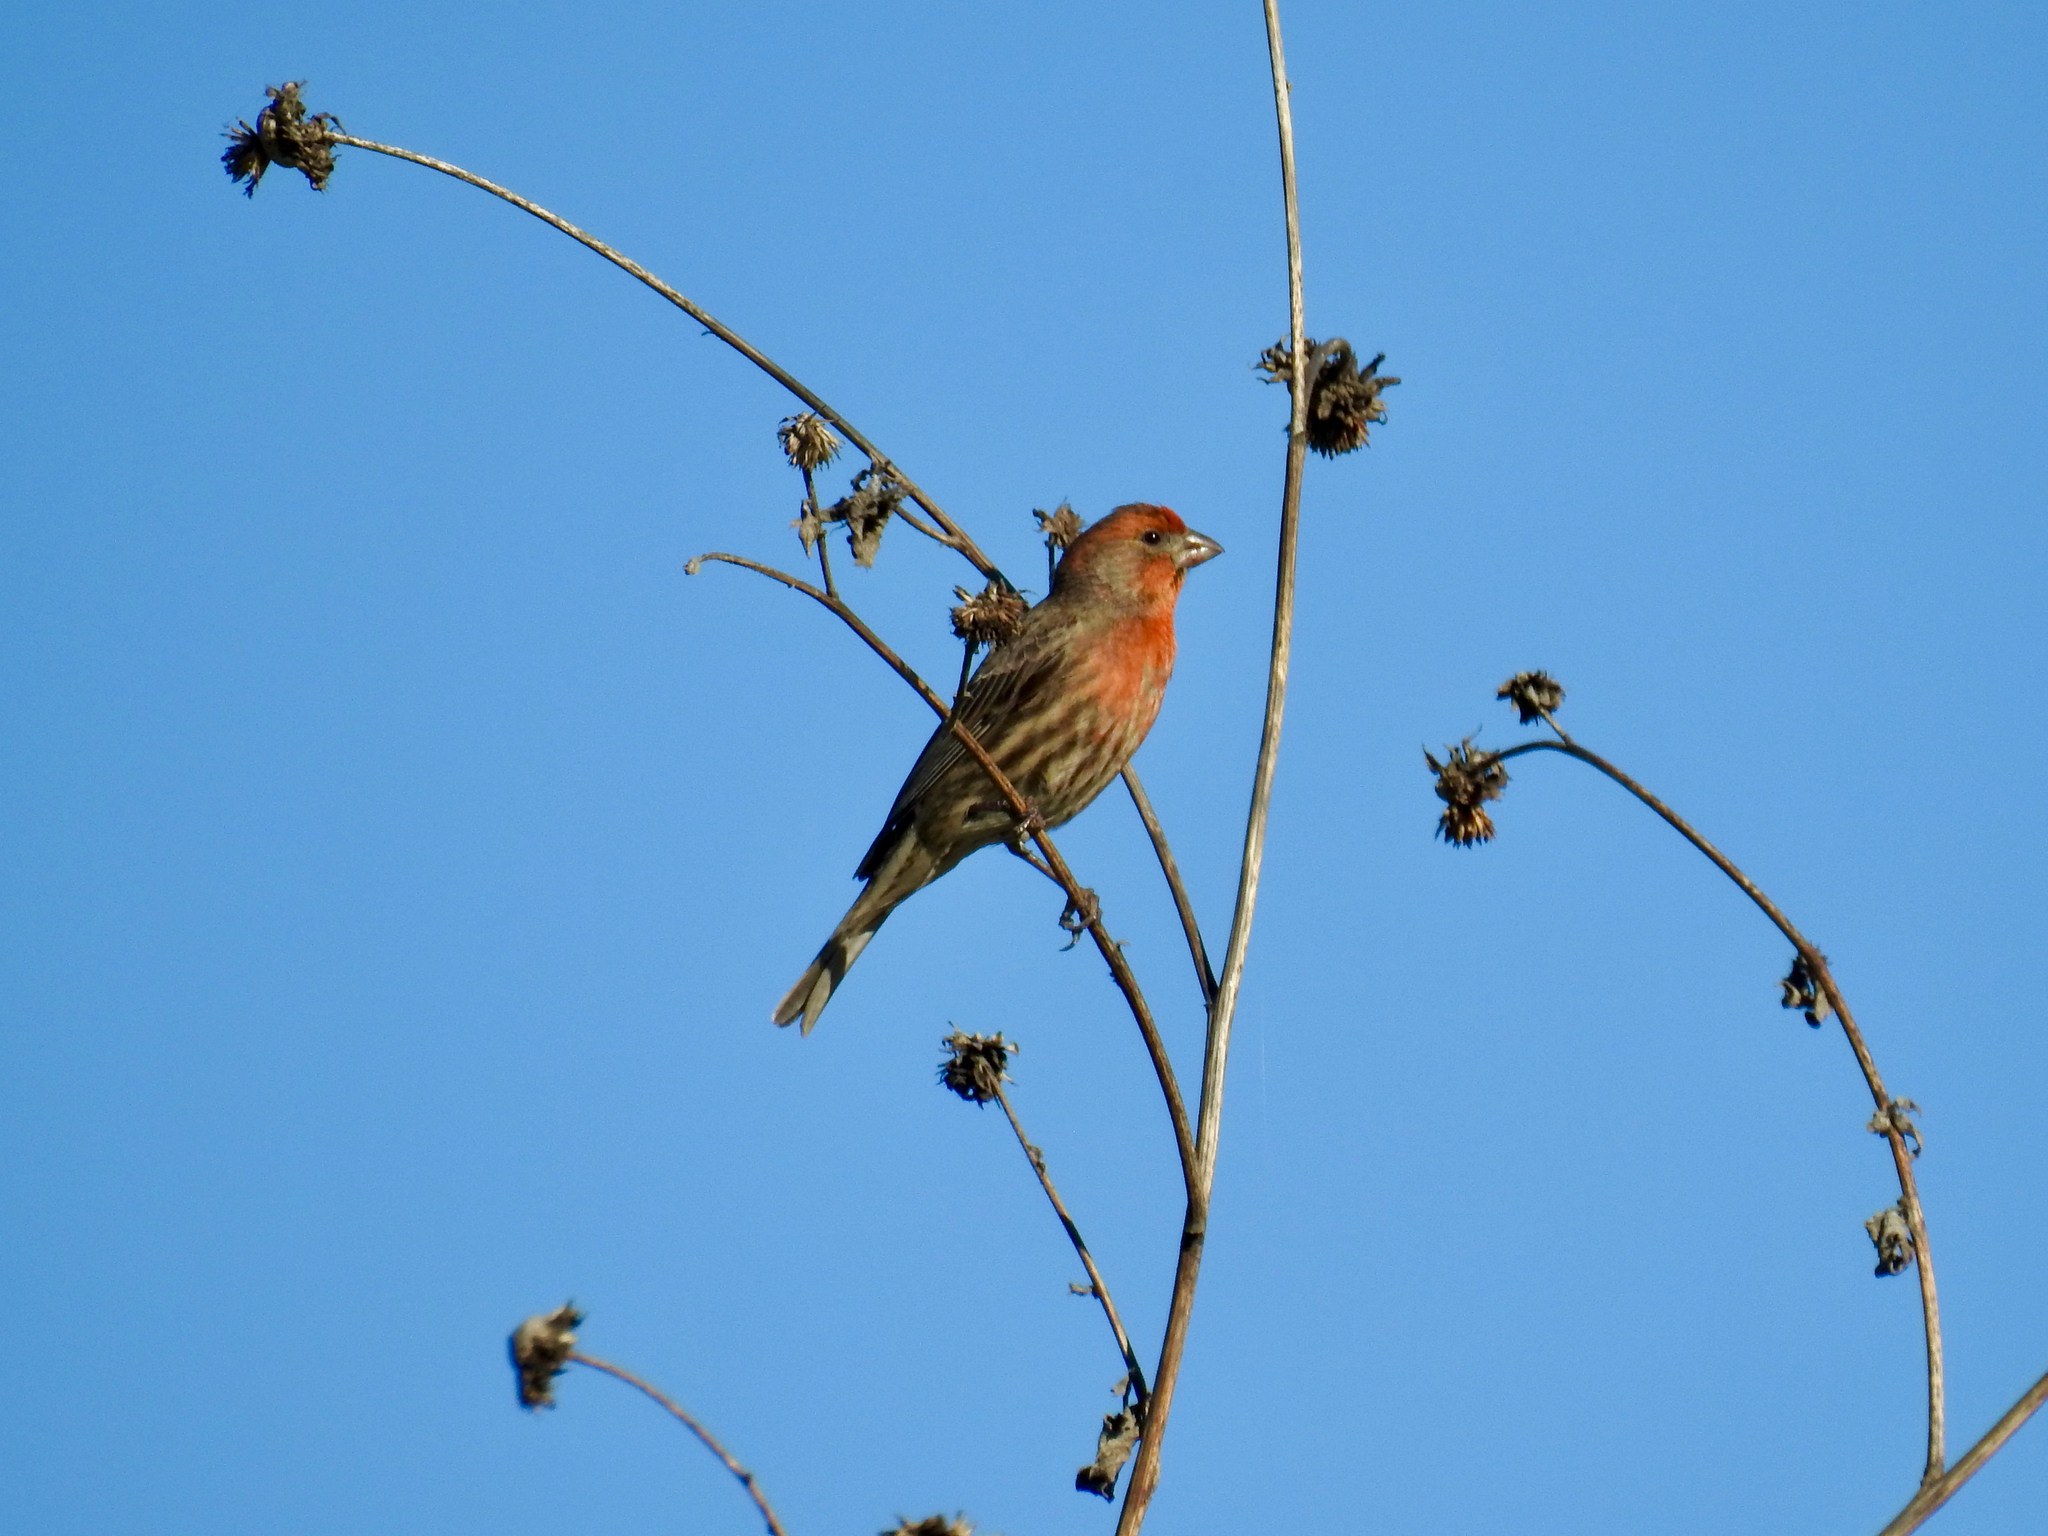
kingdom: Animalia
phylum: Chordata
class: Aves
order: Passeriformes
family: Fringillidae
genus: Haemorhous
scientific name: Haemorhous mexicanus
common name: House finch
